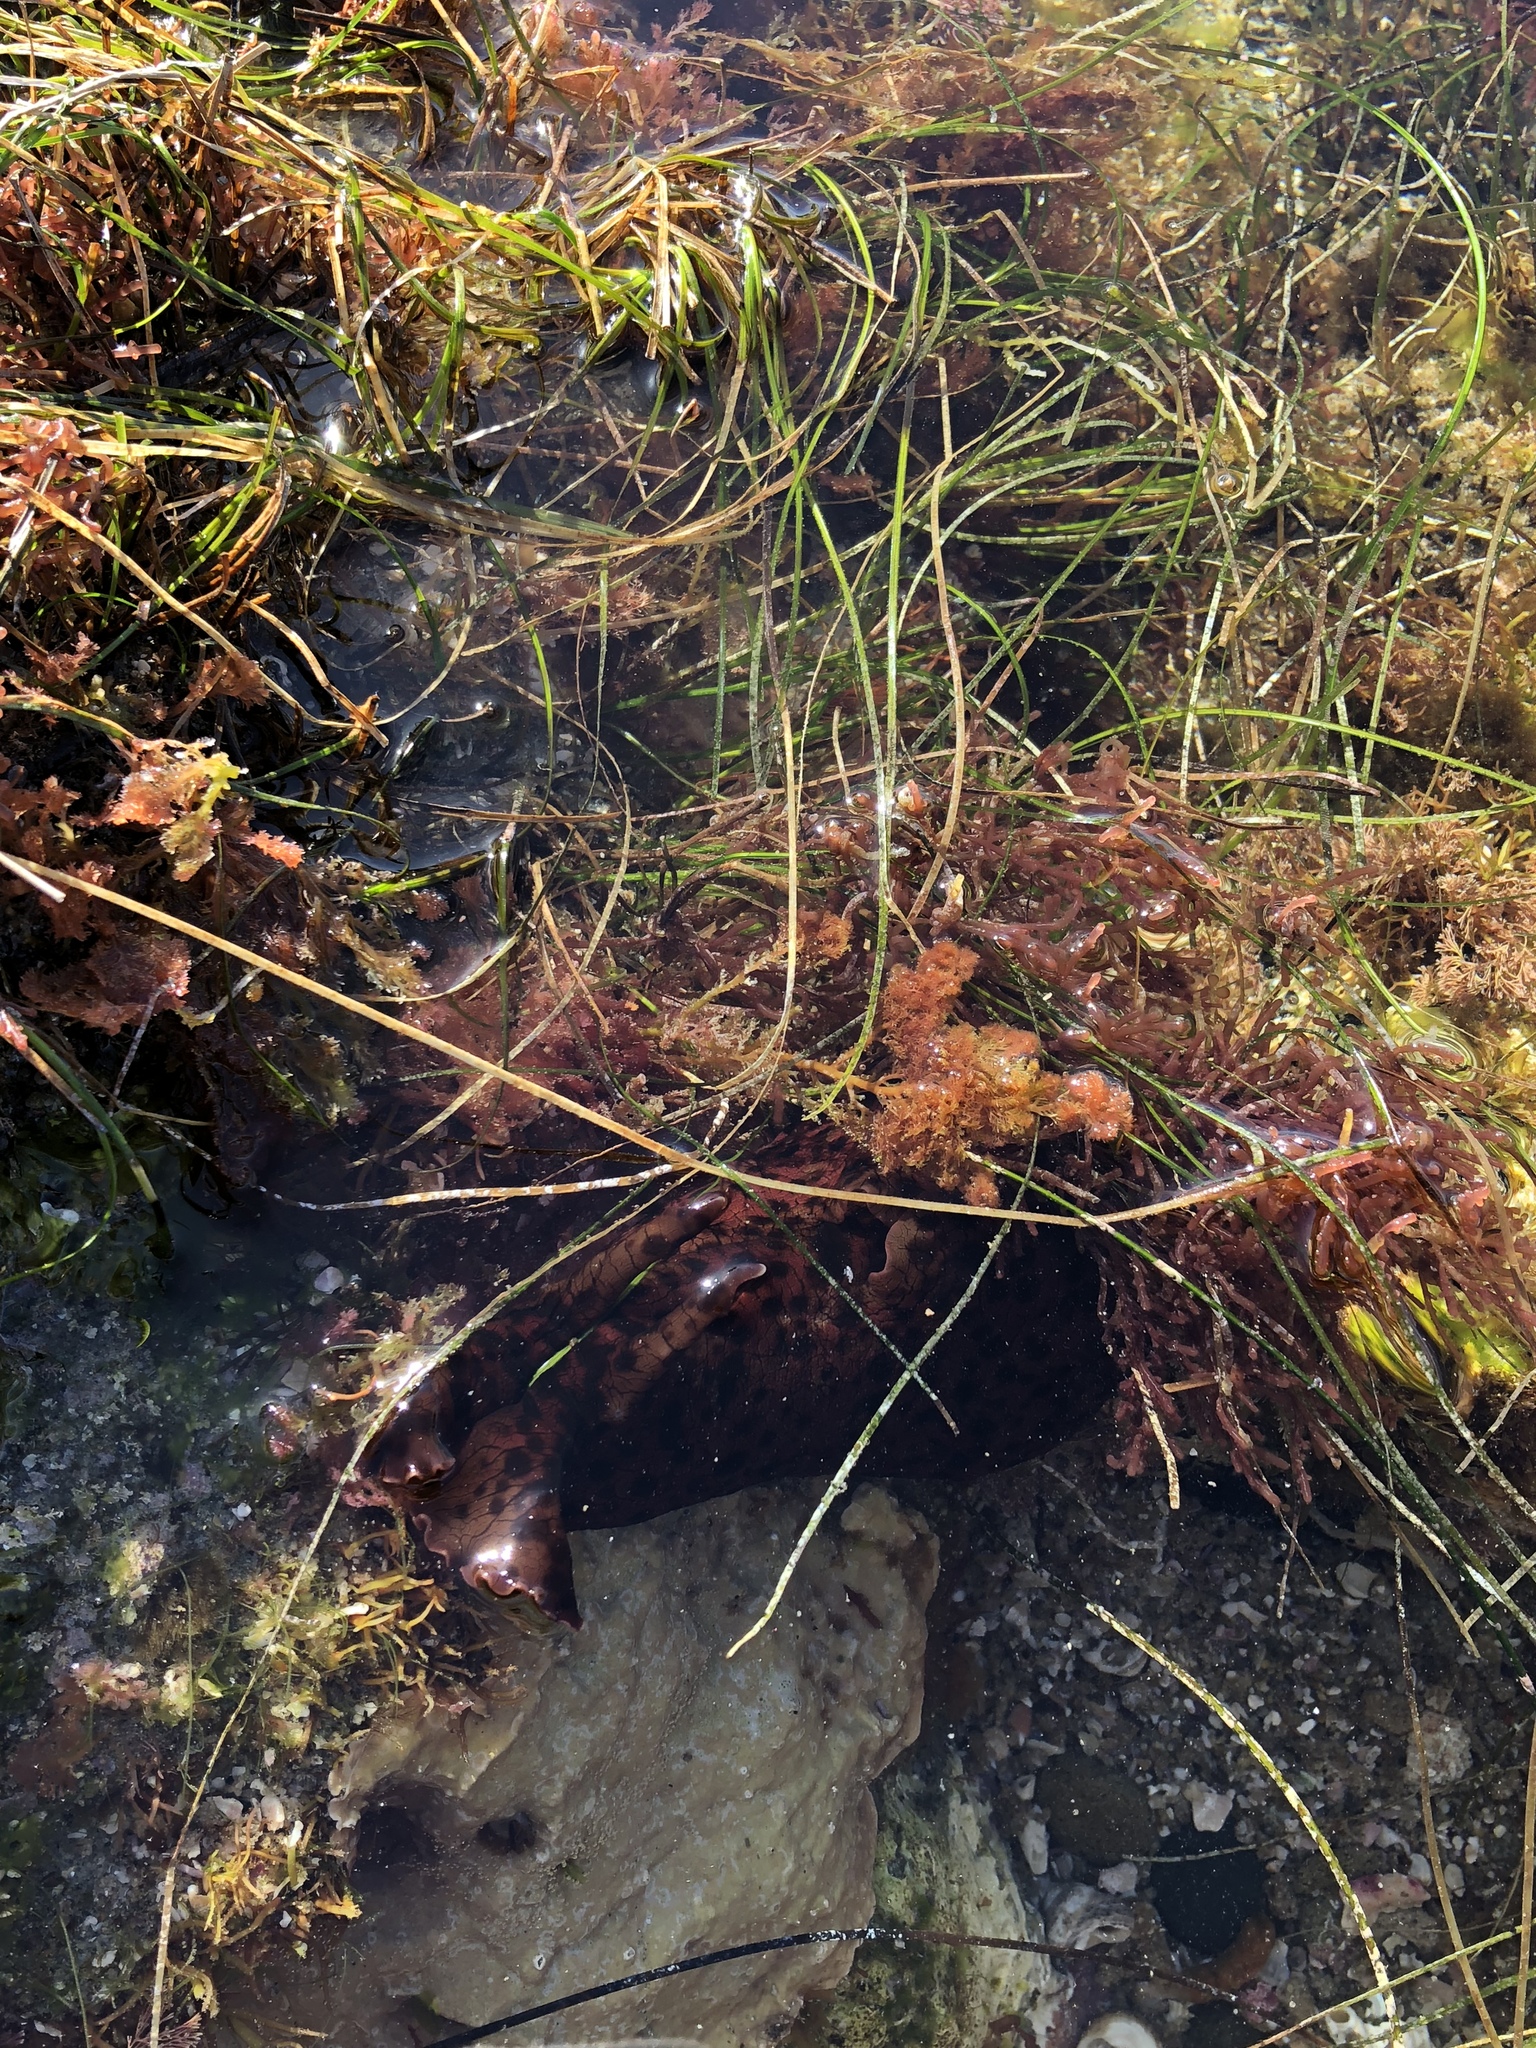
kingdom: Animalia
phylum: Mollusca
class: Gastropoda
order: Aplysiida
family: Aplysiidae
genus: Aplysia
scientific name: Aplysia californica
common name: California seahare
